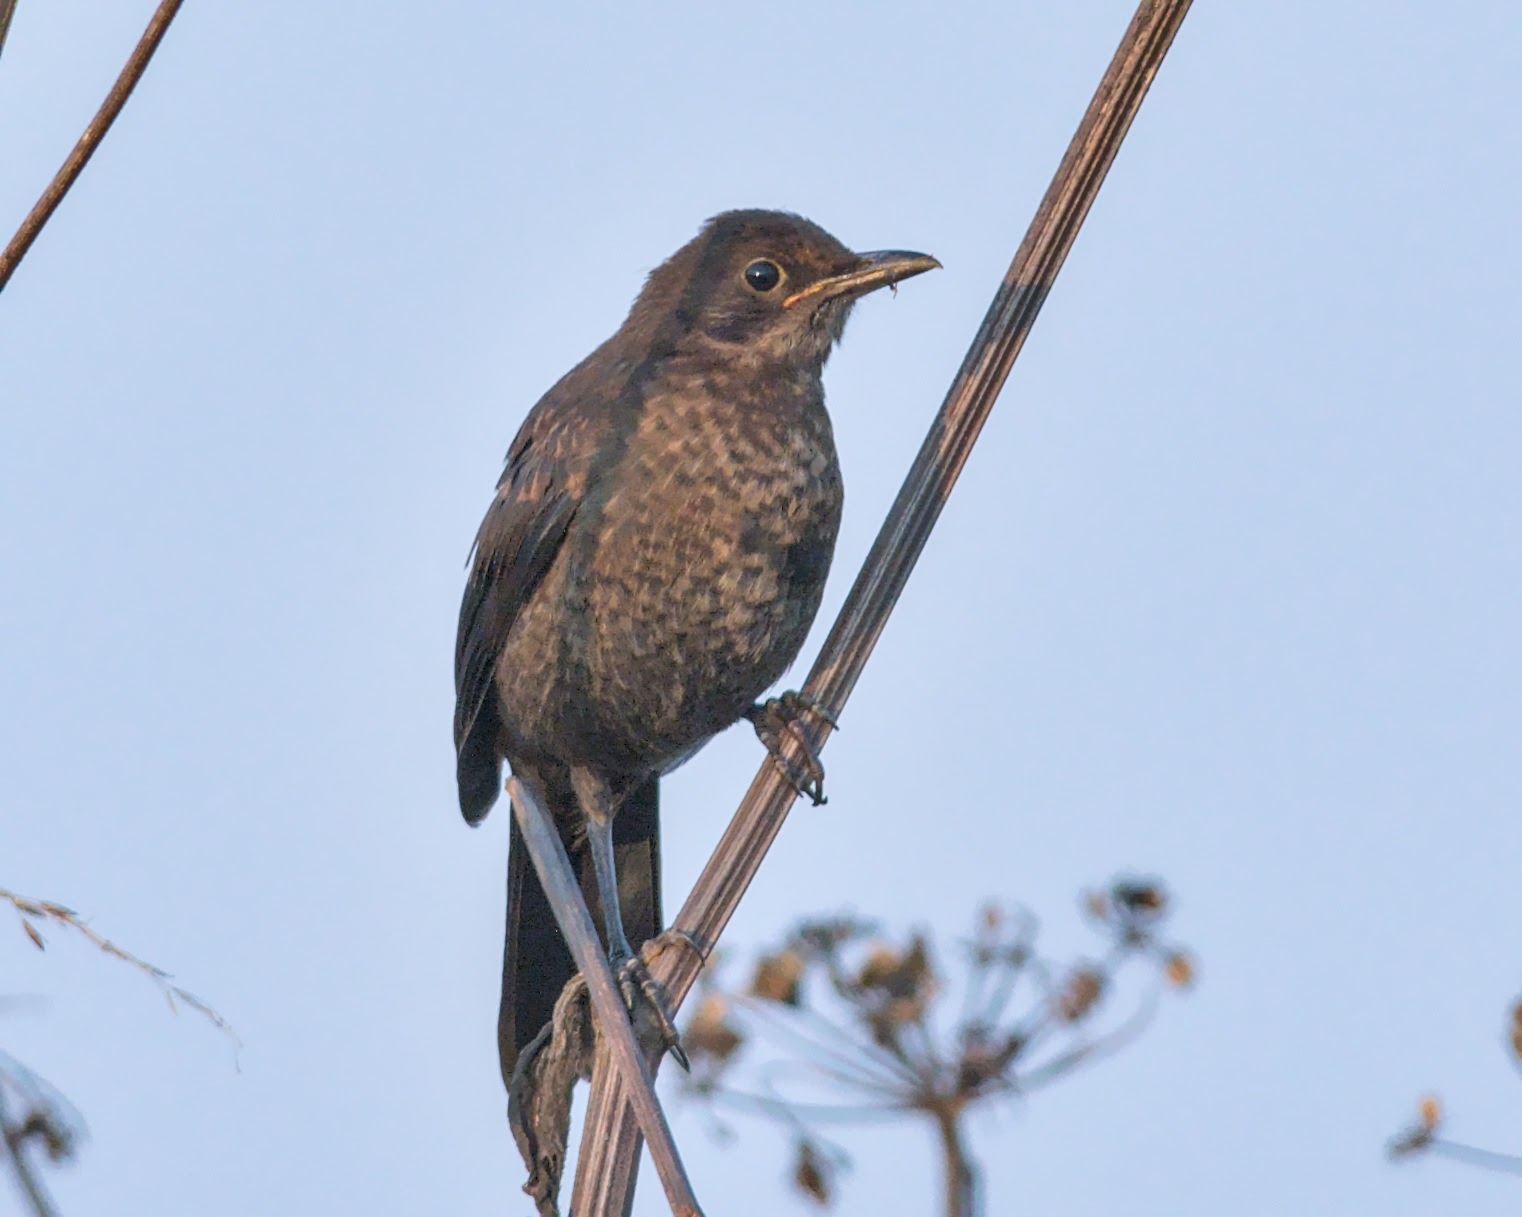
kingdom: Animalia
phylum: Chordata
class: Aves
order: Passeriformes
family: Turdidae
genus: Turdus
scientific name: Turdus merula
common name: Common blackbird
